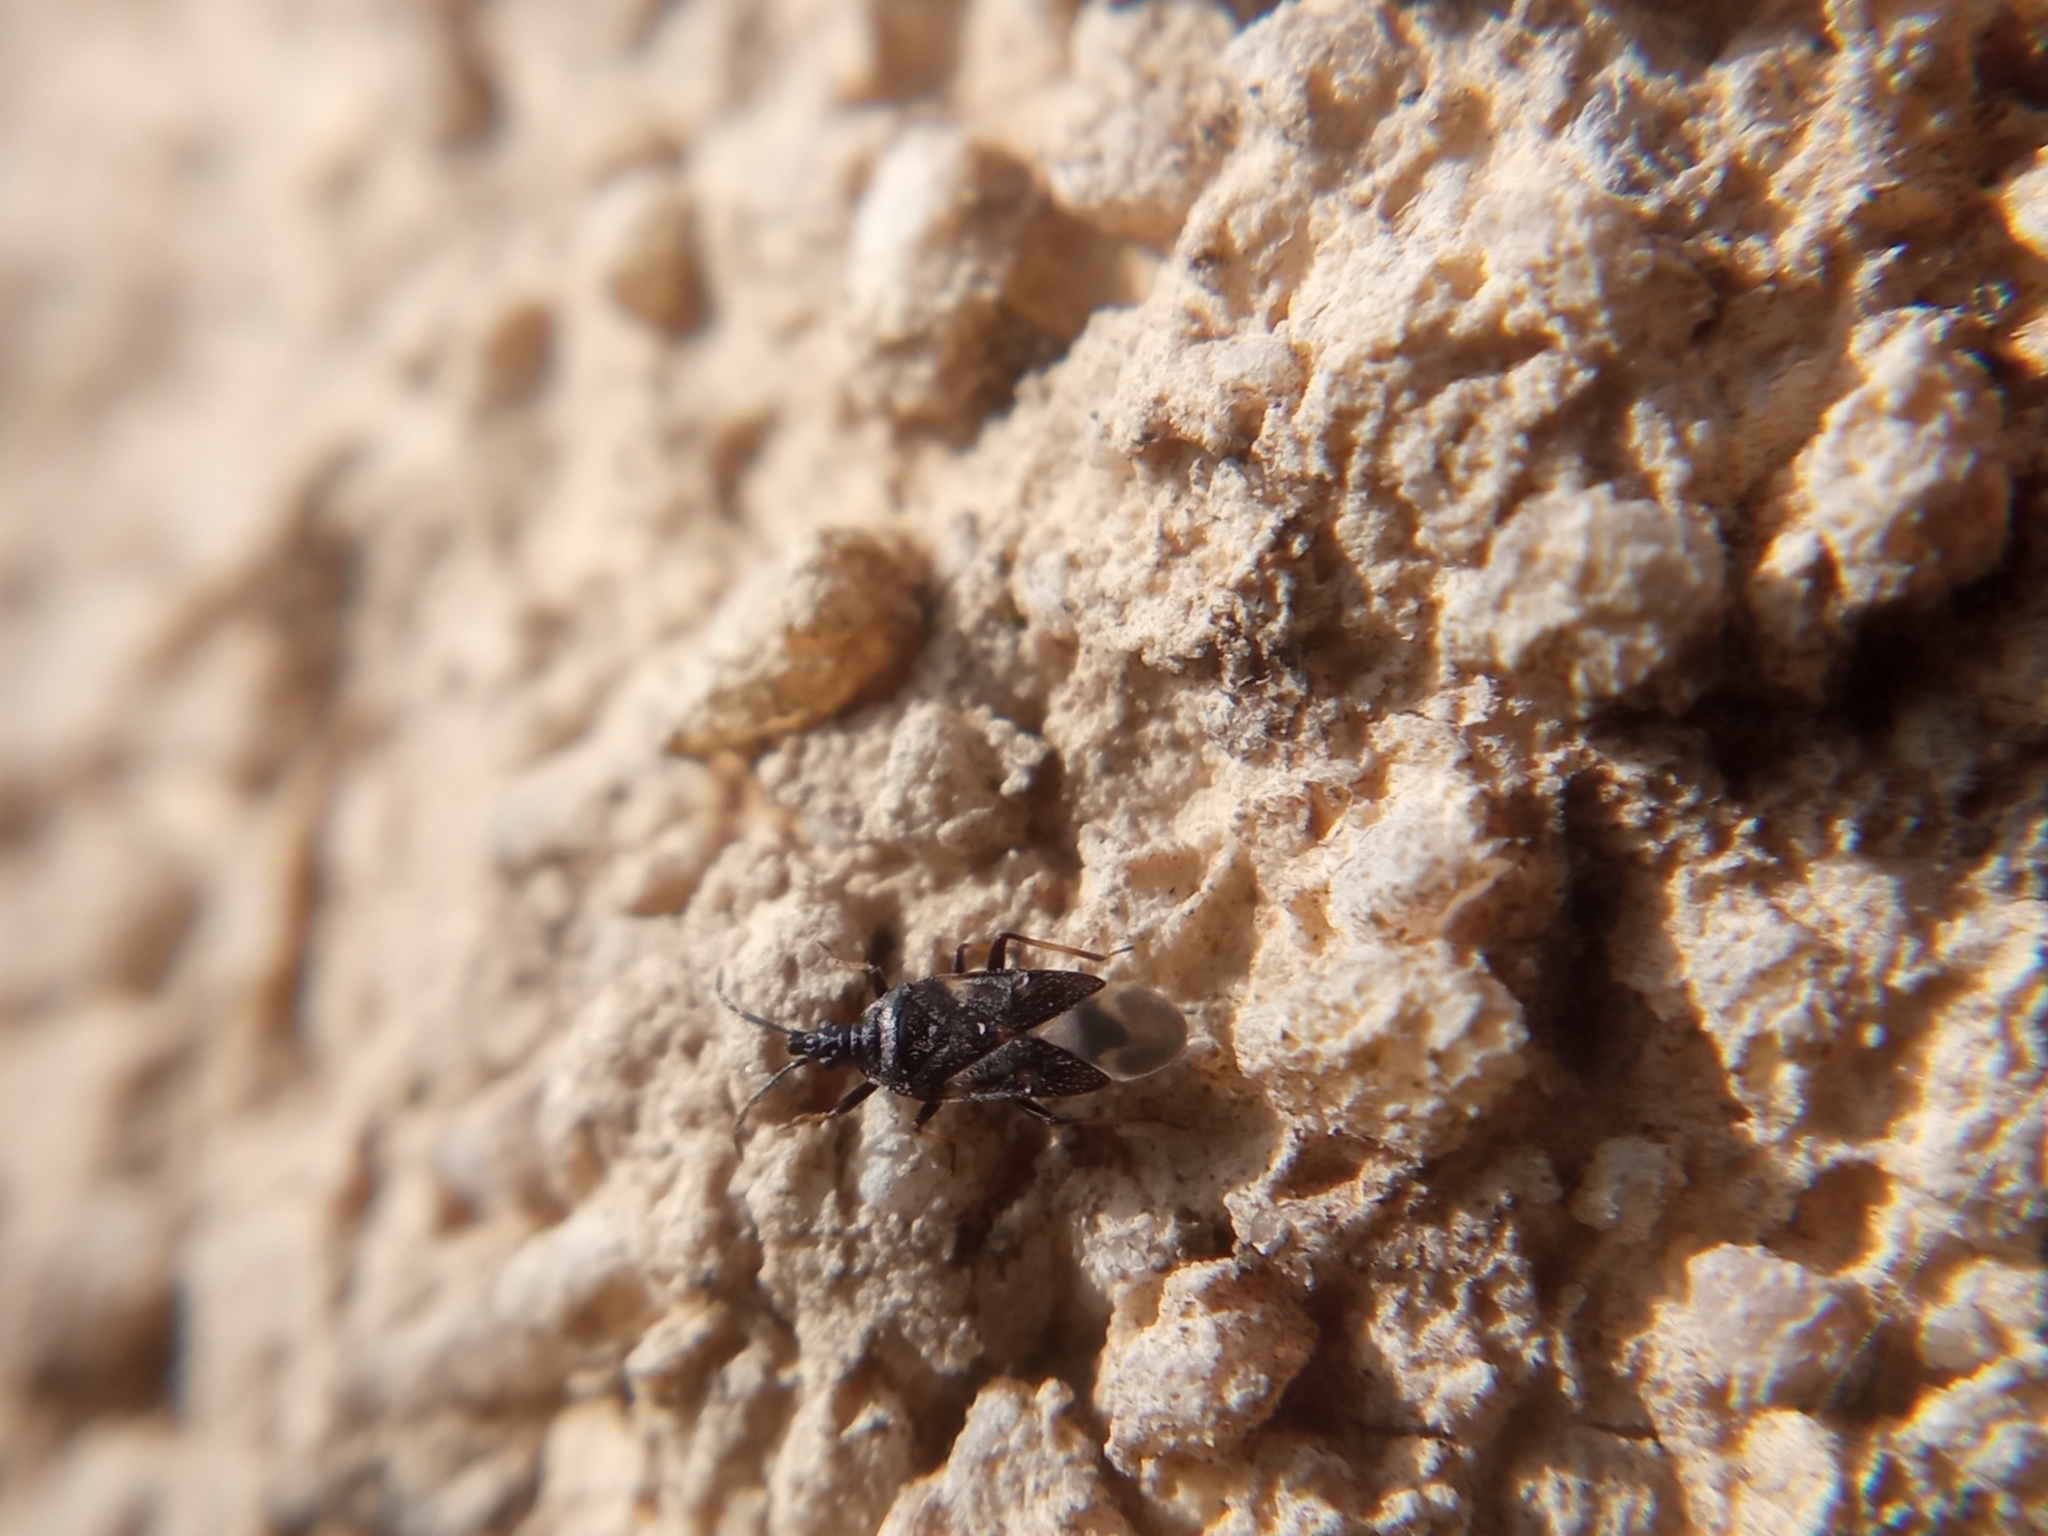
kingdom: Animalia
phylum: Arthropoda
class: Insecta
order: Hemiptera
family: Anthocoridae
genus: Temnostethus
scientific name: Temnostethus pusillus
